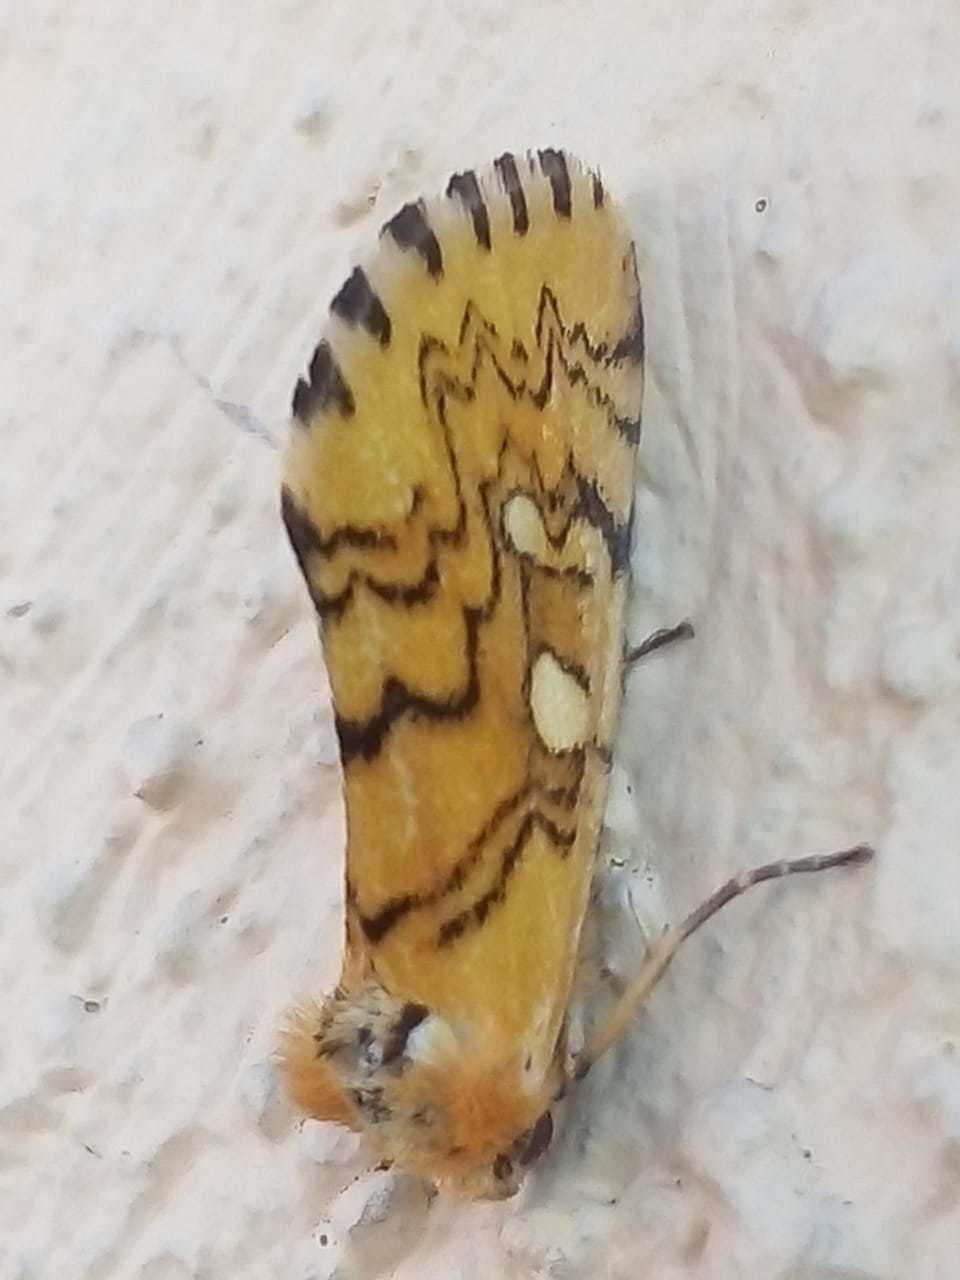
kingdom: Animalia
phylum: Arthropoda
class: Insecta
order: Lepidoptera
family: Noctuidae
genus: Chrysoecia
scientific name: Chrysoecia
